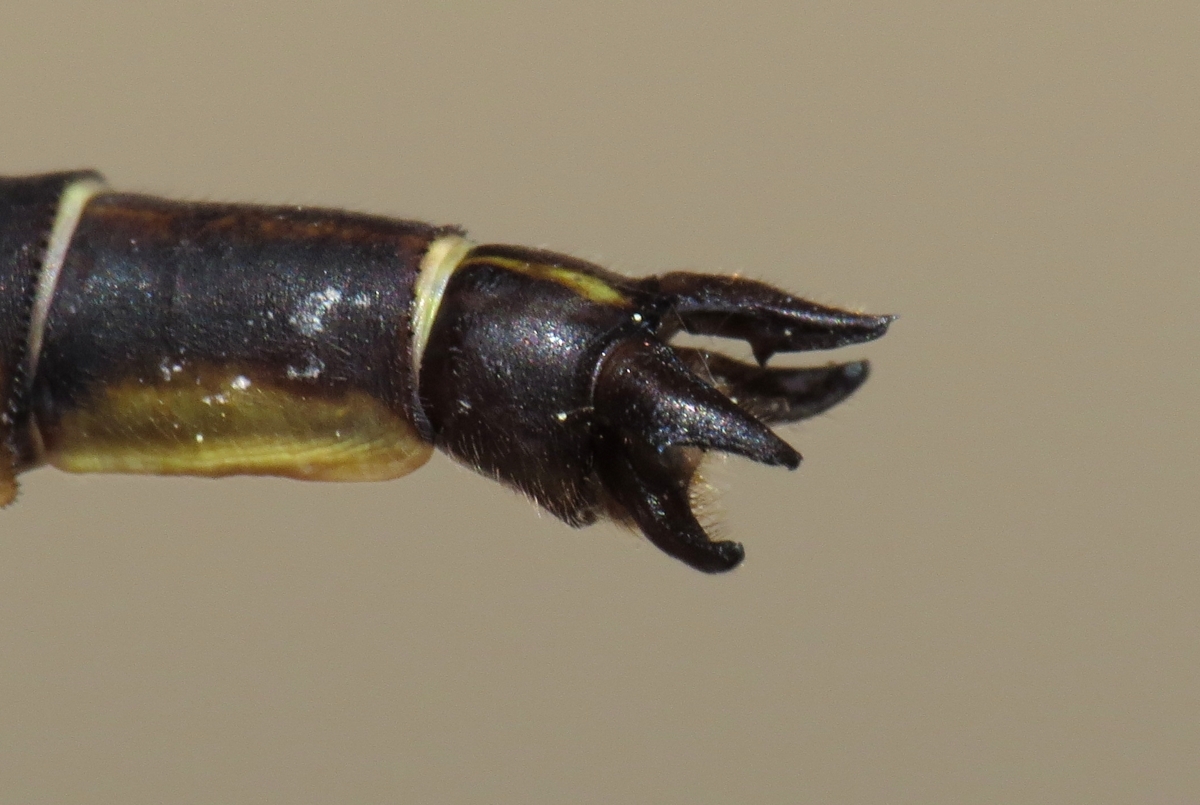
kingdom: Animalia
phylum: Arthropoda
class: Insecta
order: Odonata
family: Gomphidae
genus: Phanogomphus
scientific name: Phanogomphus spicatus
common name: Dusky clubtail
